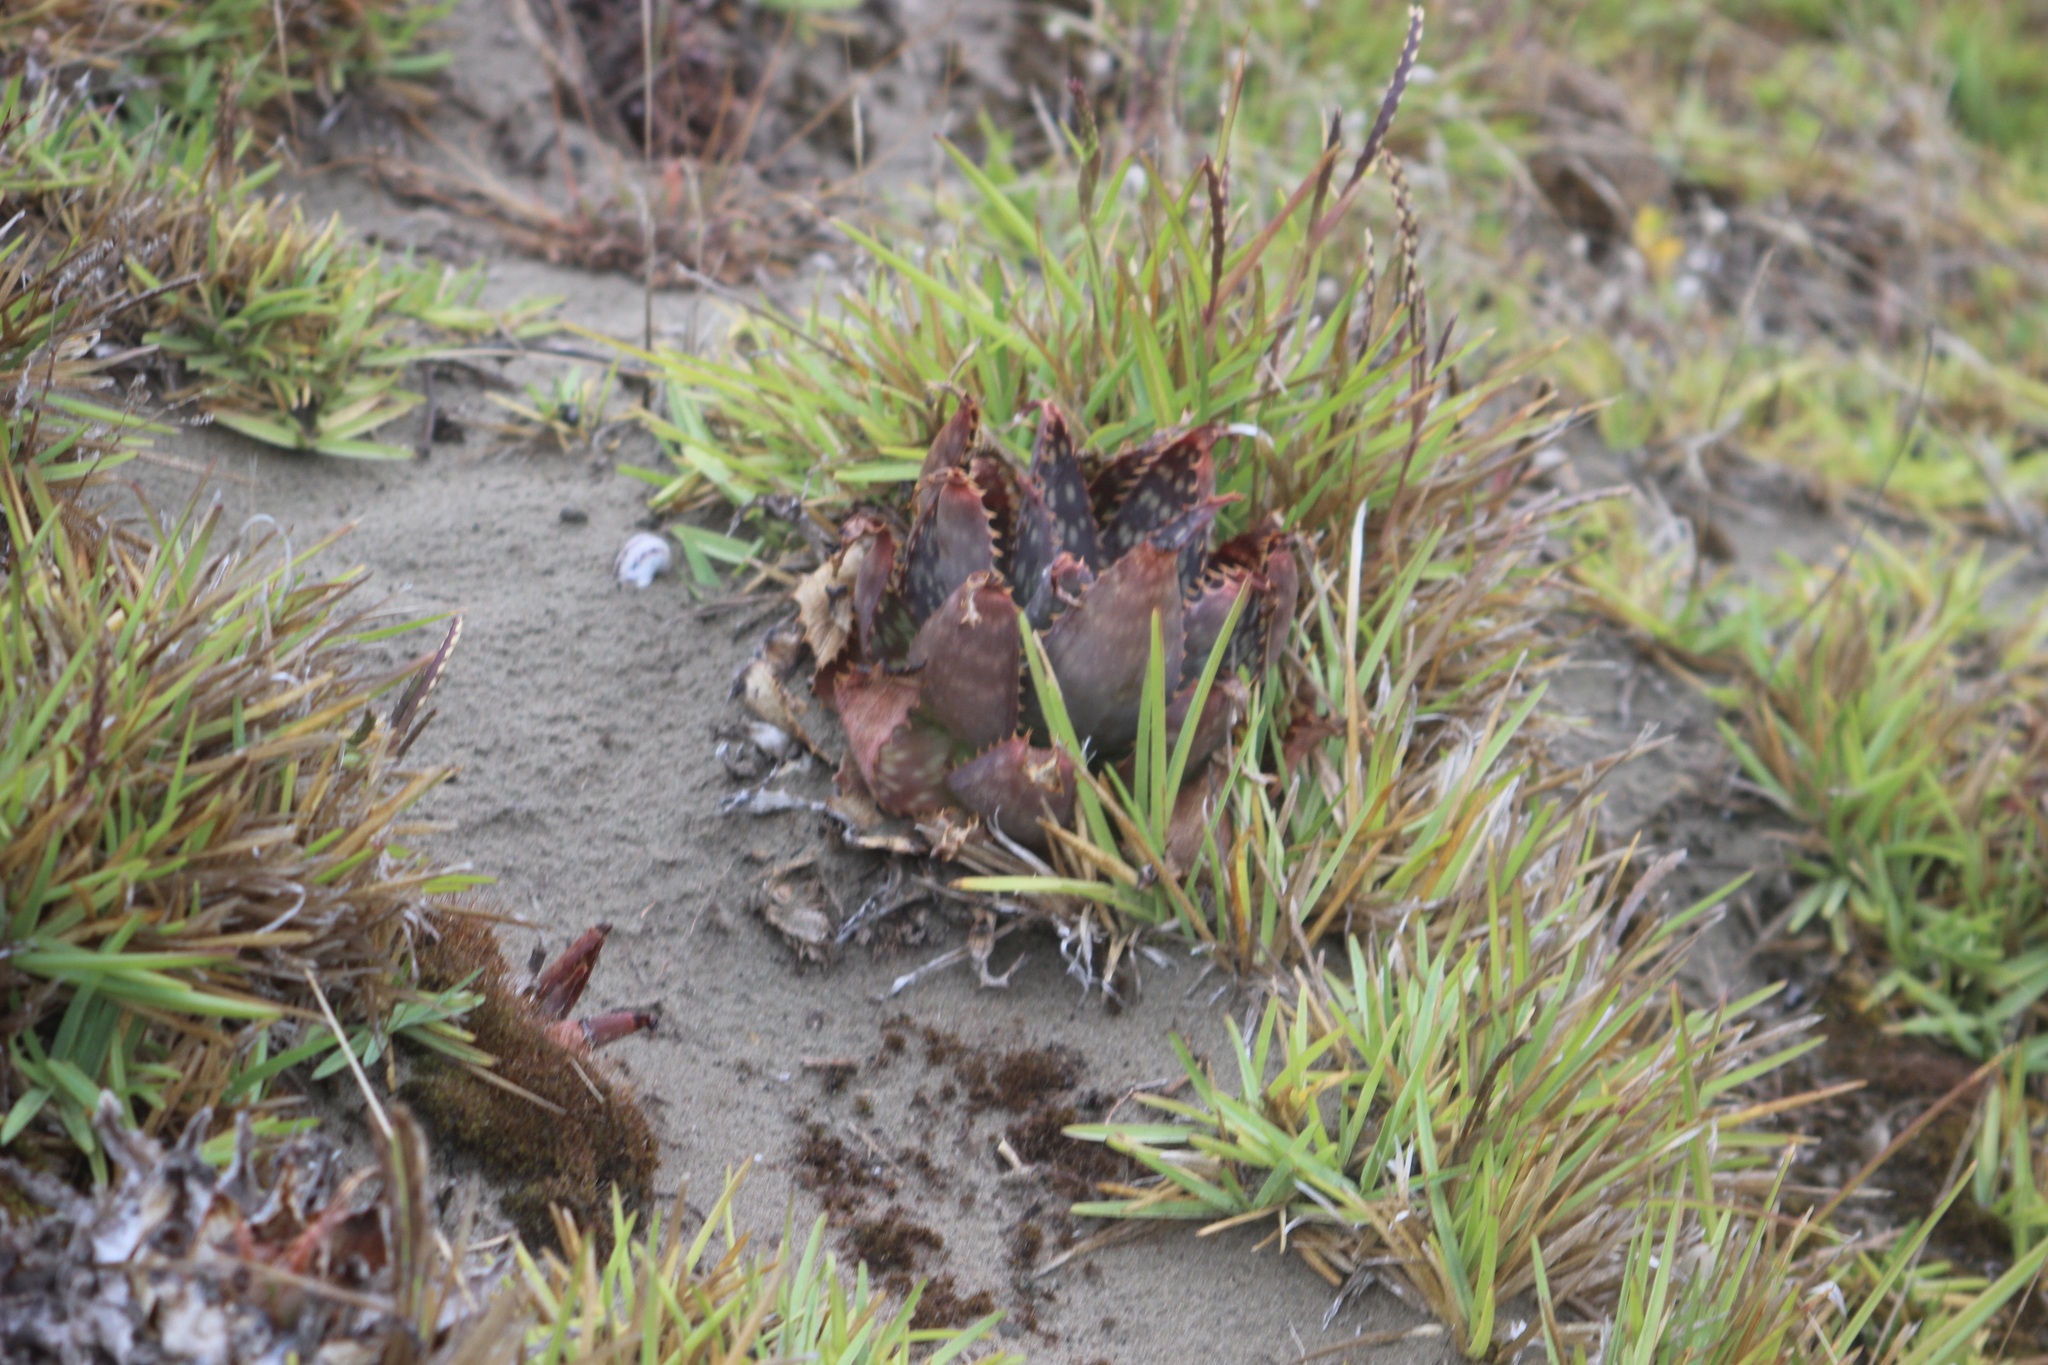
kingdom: Plantae
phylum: Tracheophyta
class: Liliopsida
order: Asparagales
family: Asphodelaceae
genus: Aloe
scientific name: Aloe maculata
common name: Broadleaf aloe
